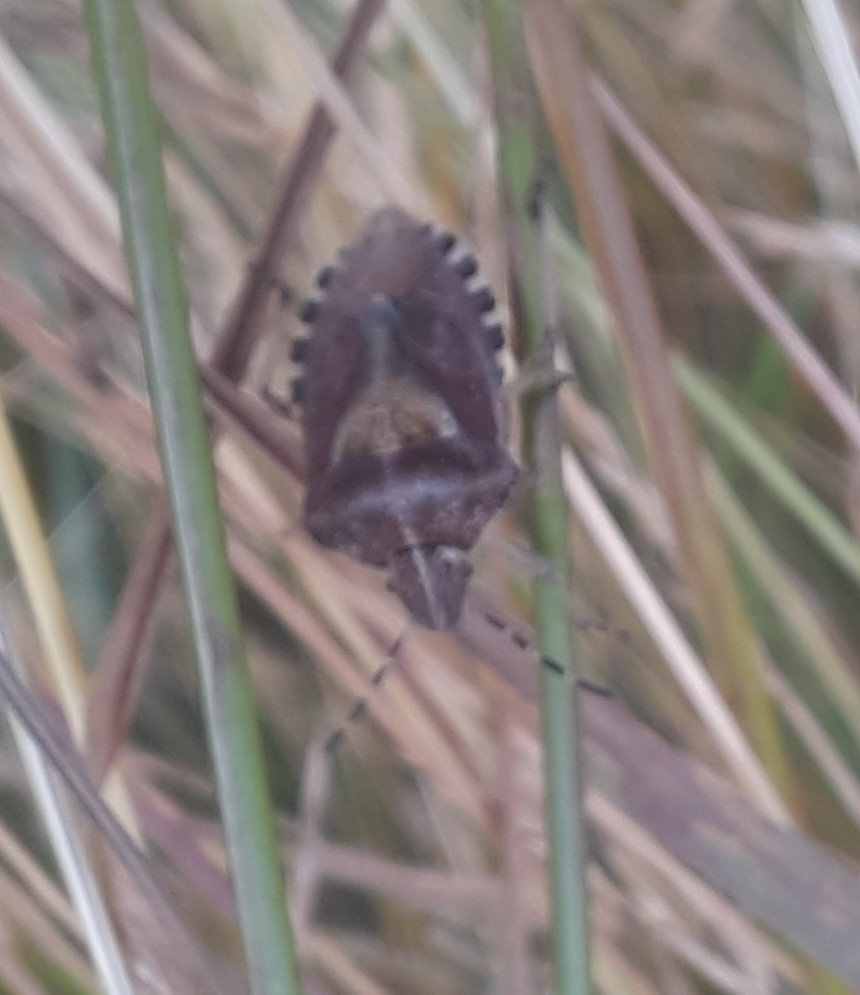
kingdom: Animalia
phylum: Arthropoda
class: Insecta
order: Hemiptera
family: Pentatomidae
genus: Dolycoris
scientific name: Dolycoris baccarum
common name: Sloe bug
